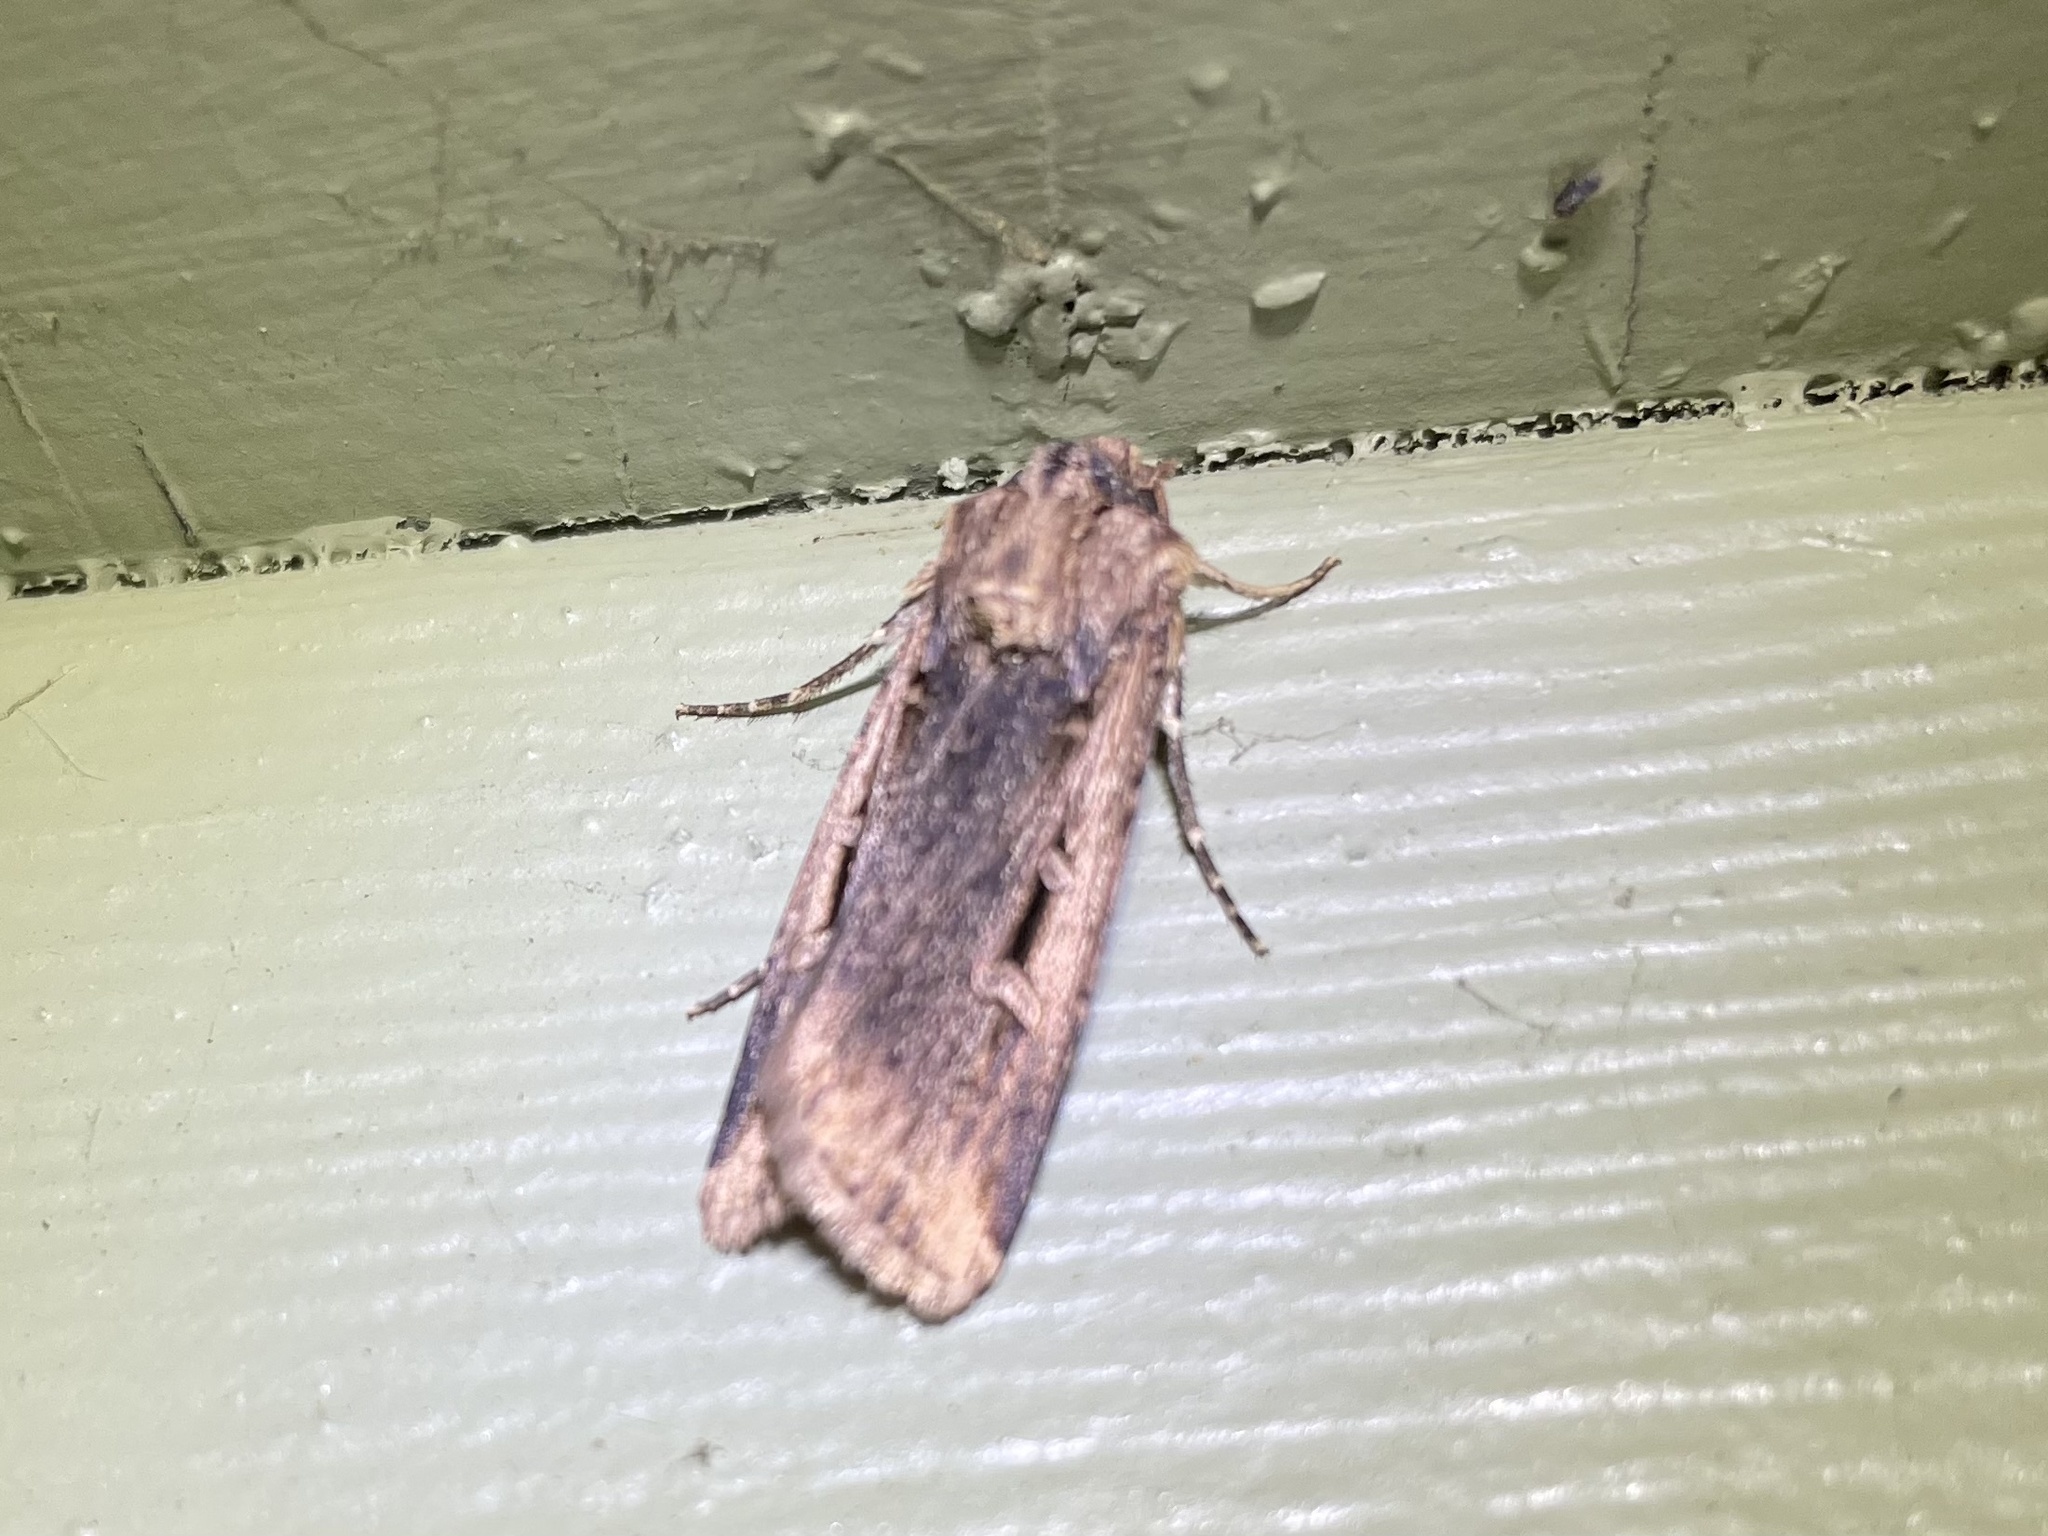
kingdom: Animalia
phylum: Arthropoda
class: Insecta
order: Lepidoptera
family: Noctuidae
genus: Feltia
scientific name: Feltia subterranea
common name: Granulate cutworm
